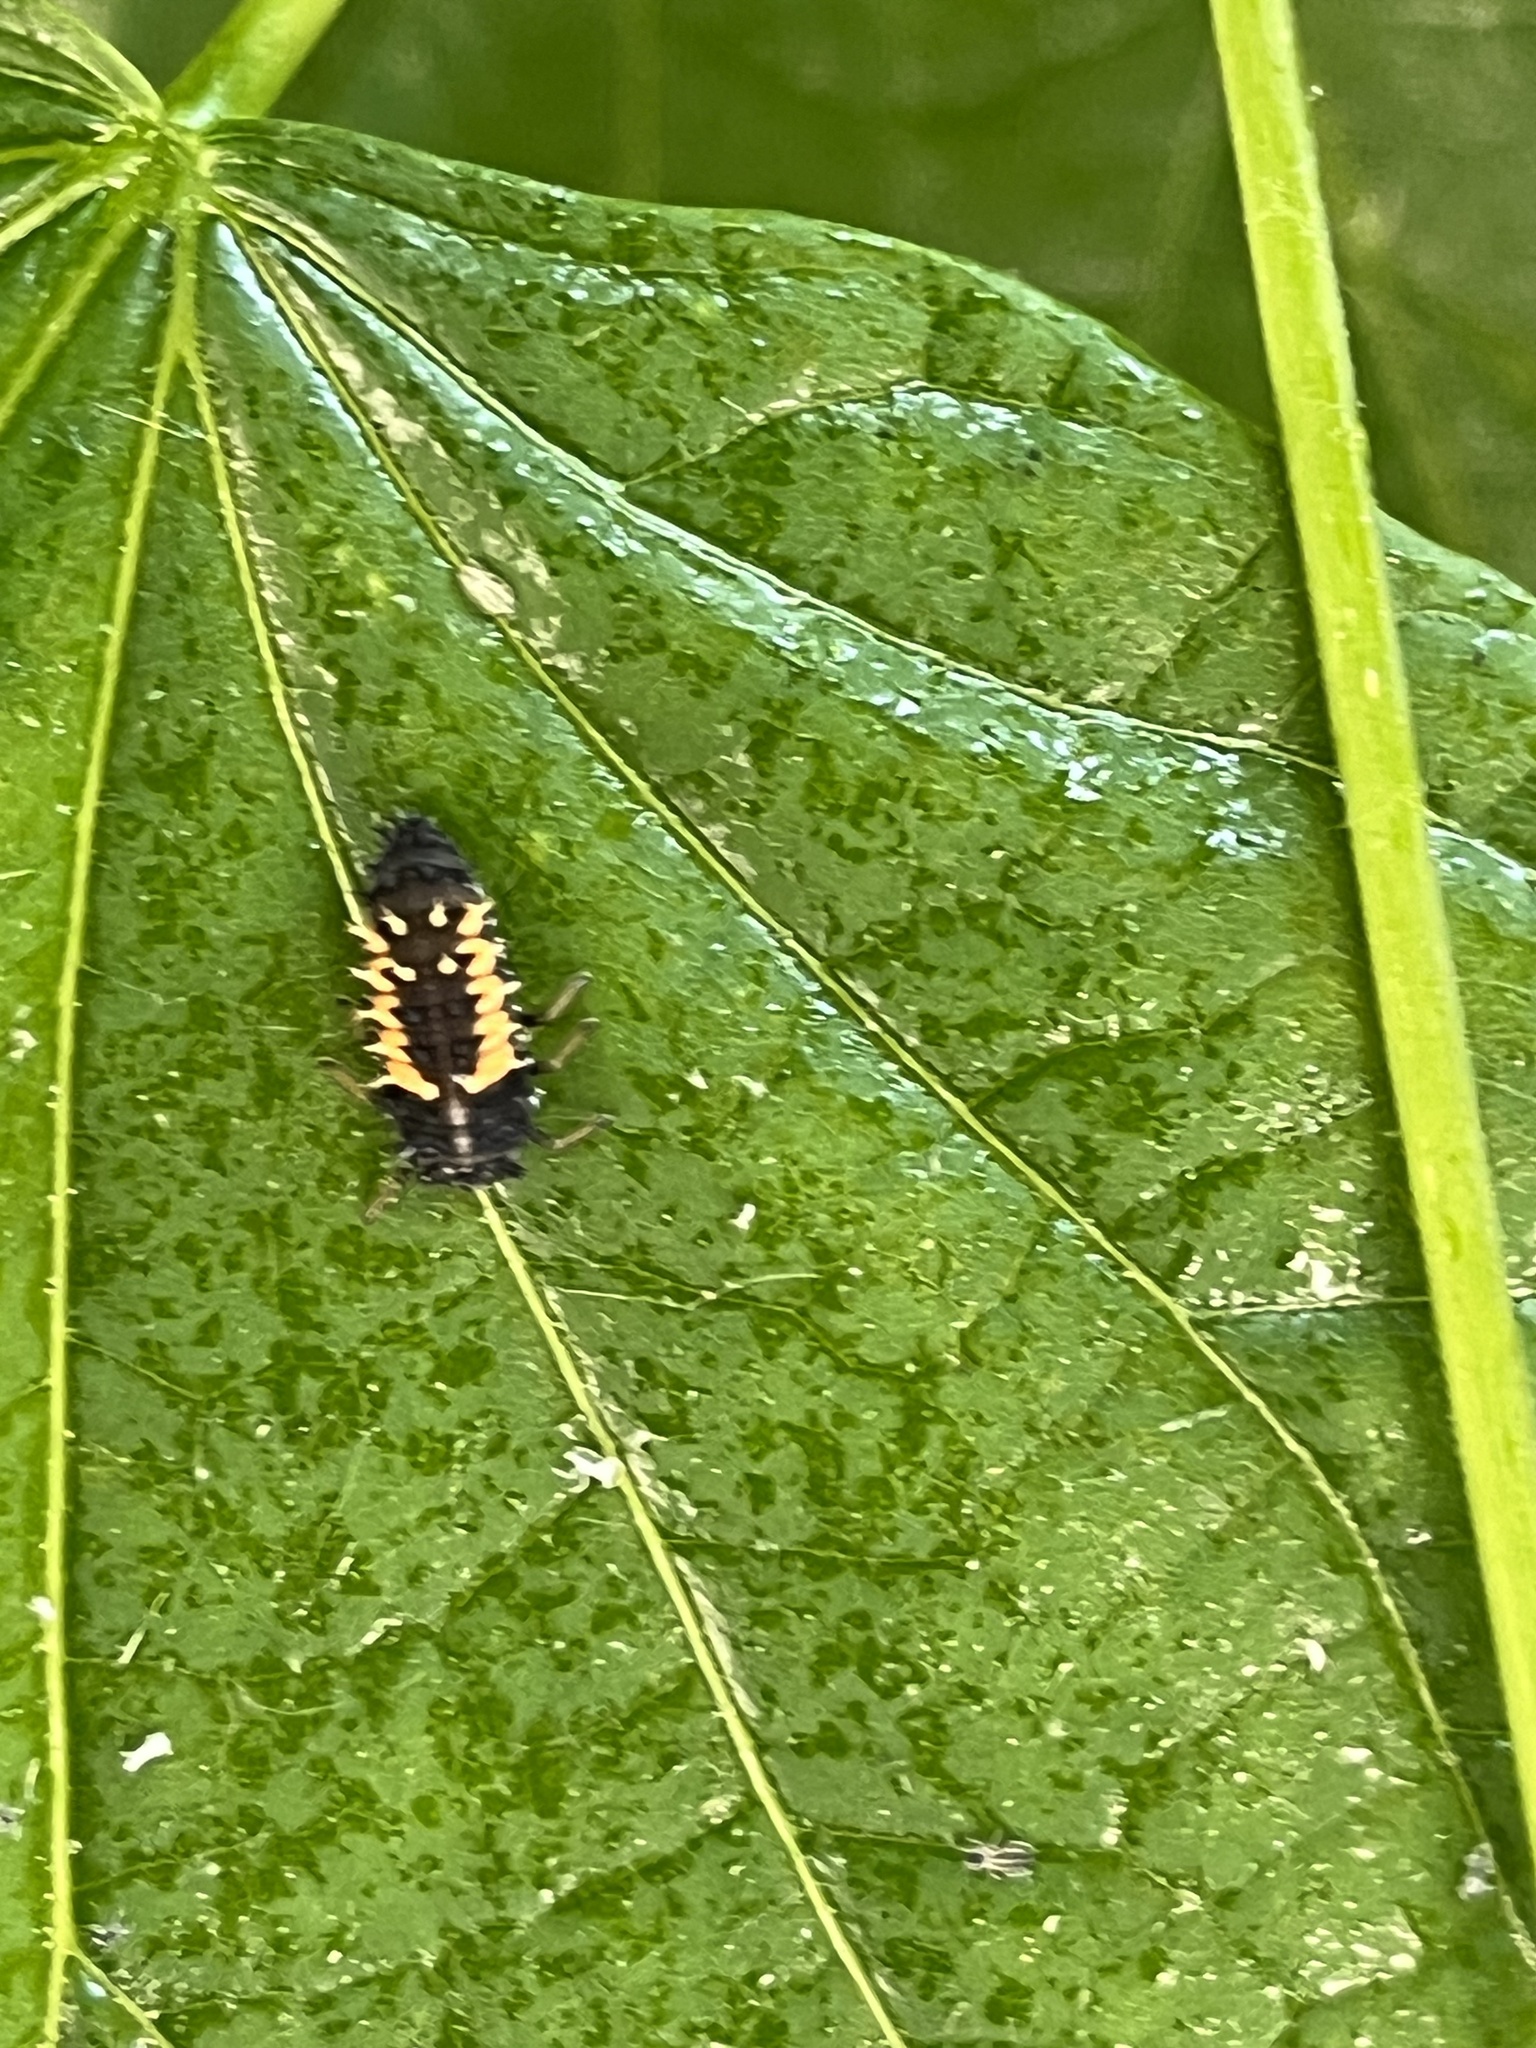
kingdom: Animalia
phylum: Arthropoda
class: Insecta
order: Coleoptera
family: Coccinellidae
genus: Harmonia
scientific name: Harmonia axyridis
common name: Harlequin ladybird
